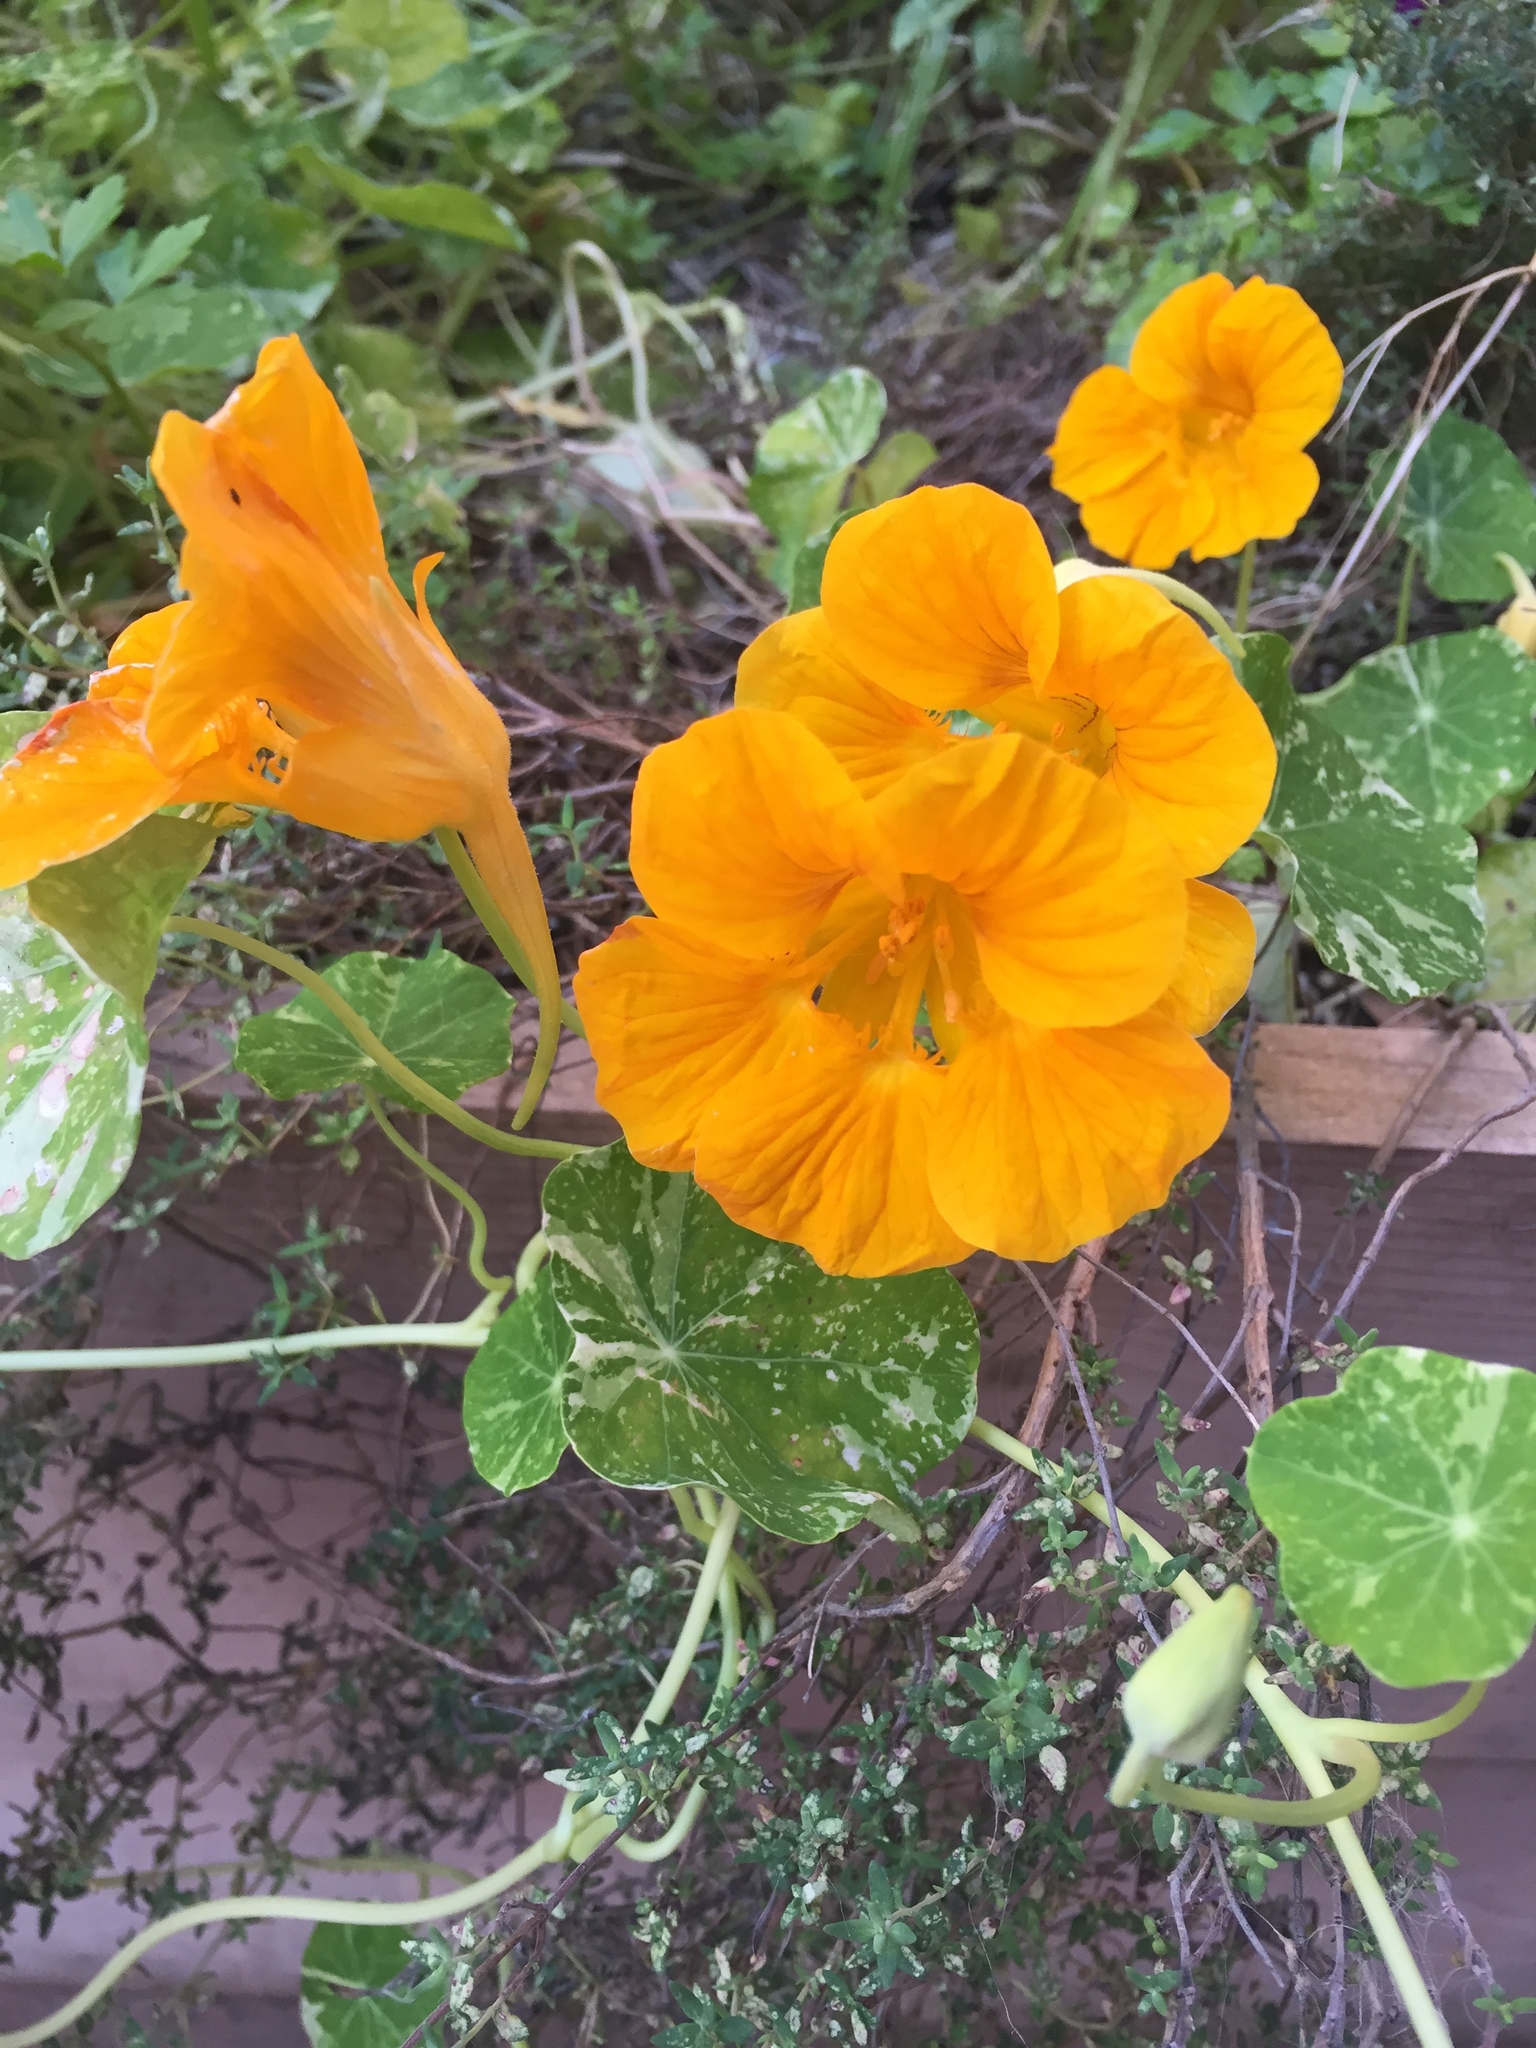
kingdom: Plantae
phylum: Tracheophyta
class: Magnoliopsida
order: Brassicales
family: Tropaeolaceae
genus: Tropaeolum
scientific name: Tropaeolum majus
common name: Nasturtium
